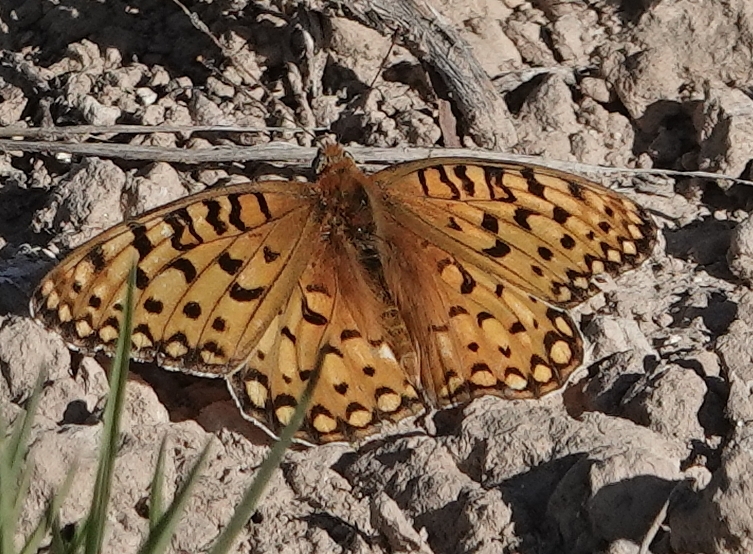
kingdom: Animalia
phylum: Arthropoda
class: Insecta
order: Lepidoptera
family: Nymphalidae
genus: Speyeria
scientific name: Speyeria edwardsii
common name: Edwards' fritillary
